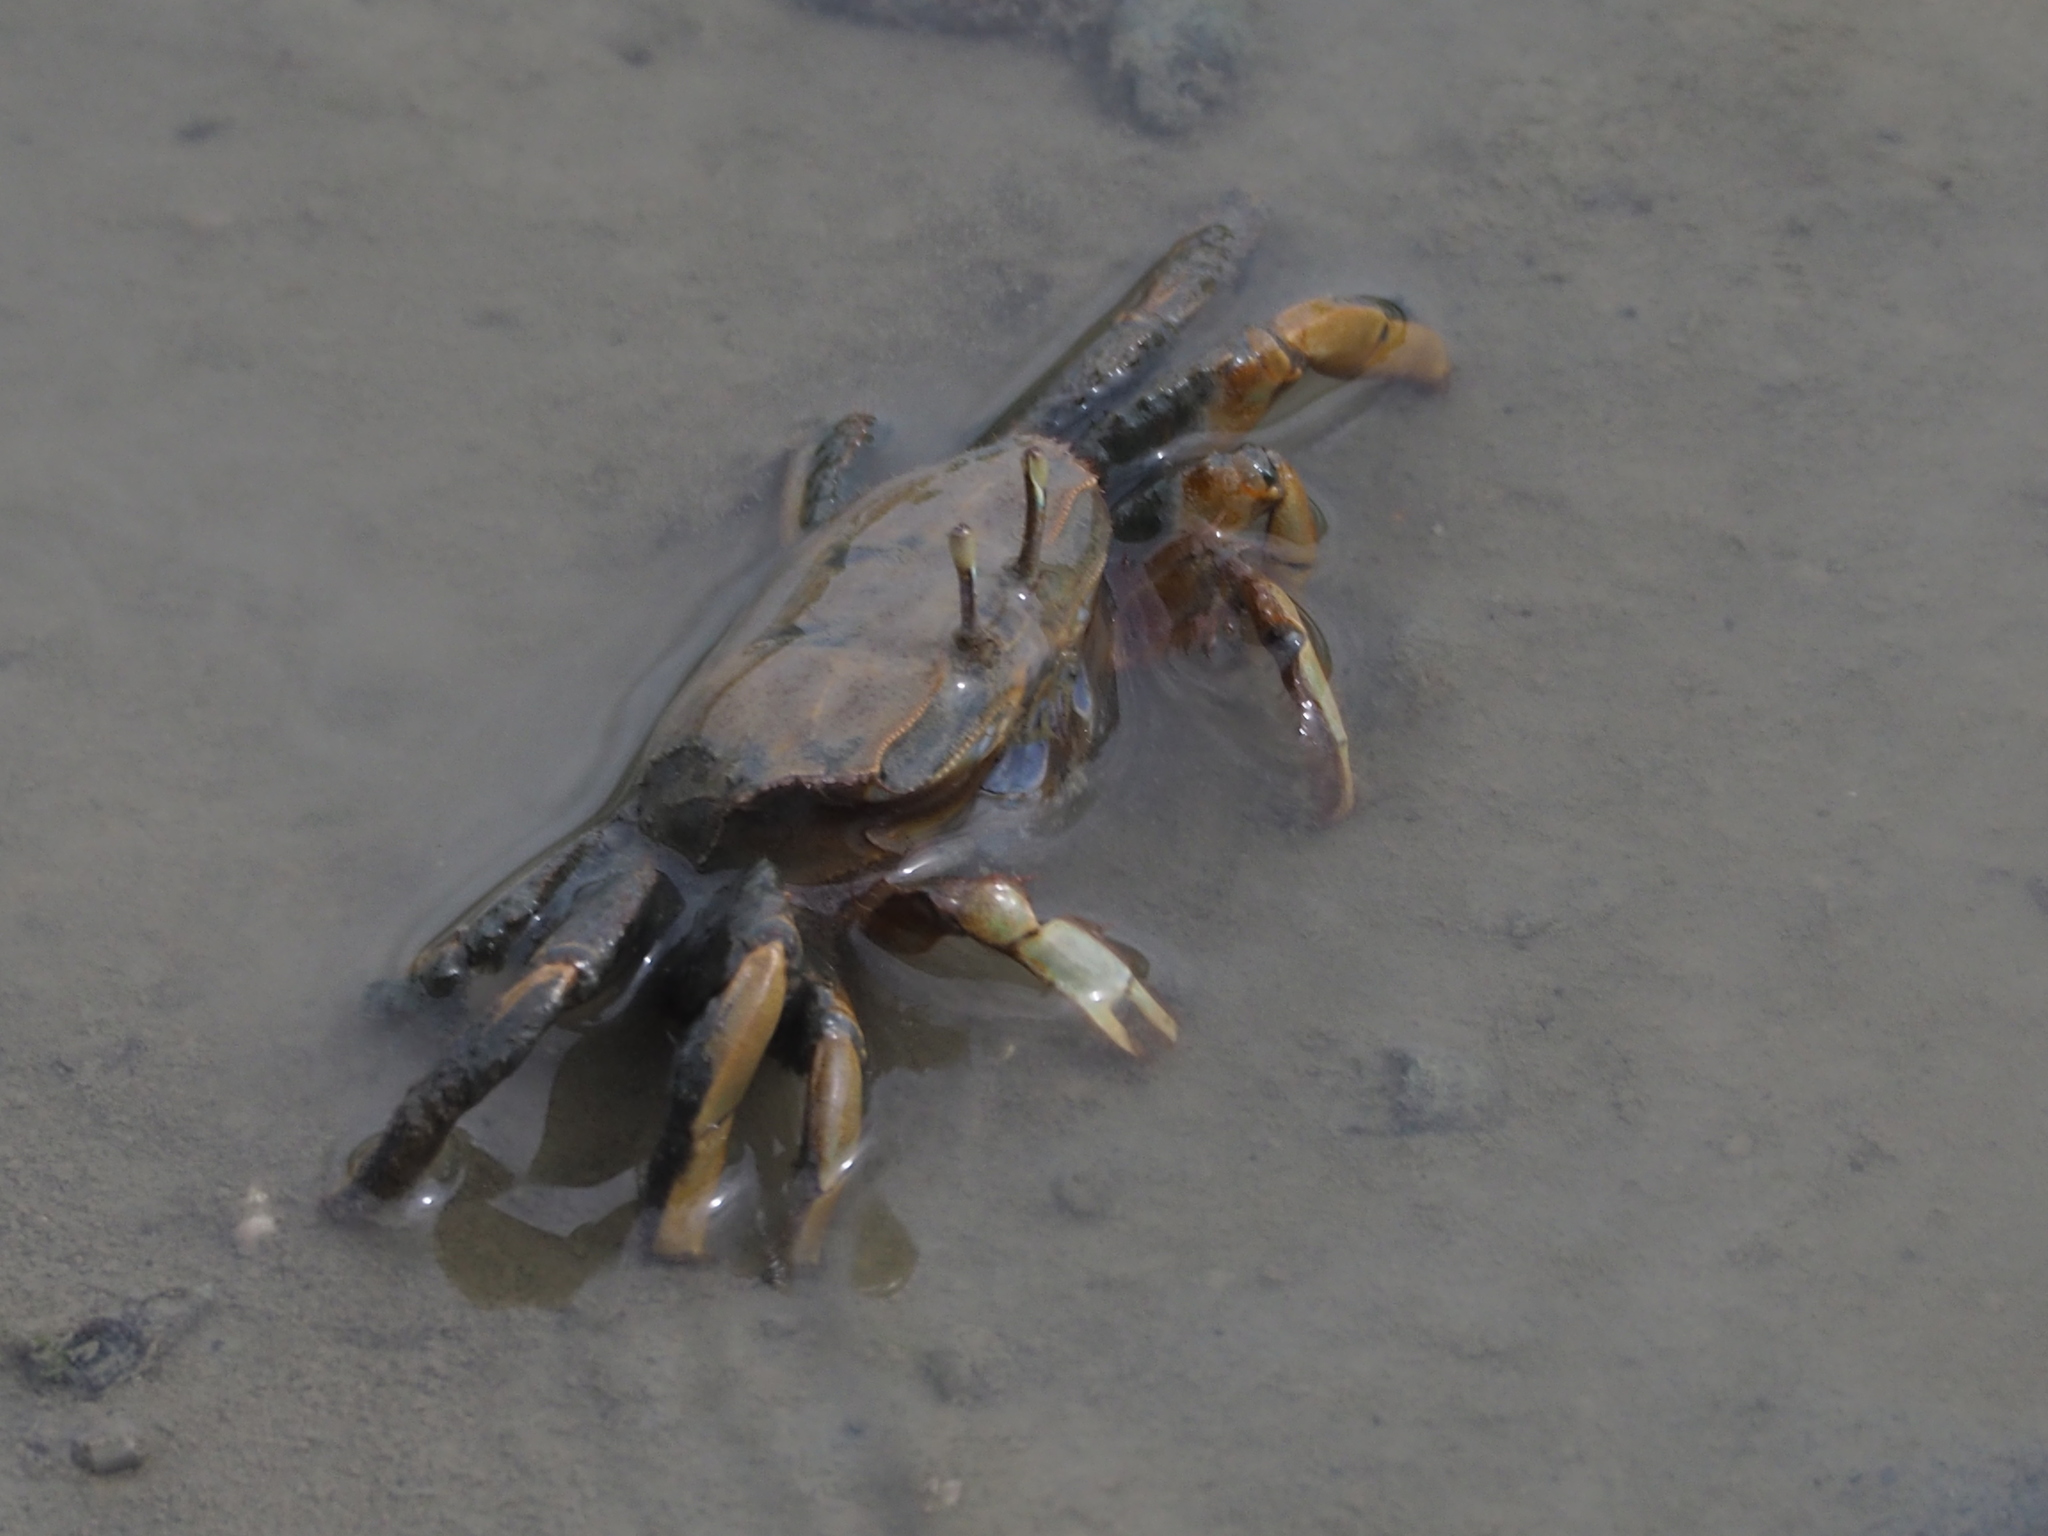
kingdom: Animalia
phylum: Arthropoda
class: Malacostraca
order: Decapoda
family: Macrophthalmidae
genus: Macrophthalmus
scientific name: Macrophthalmus banzai
